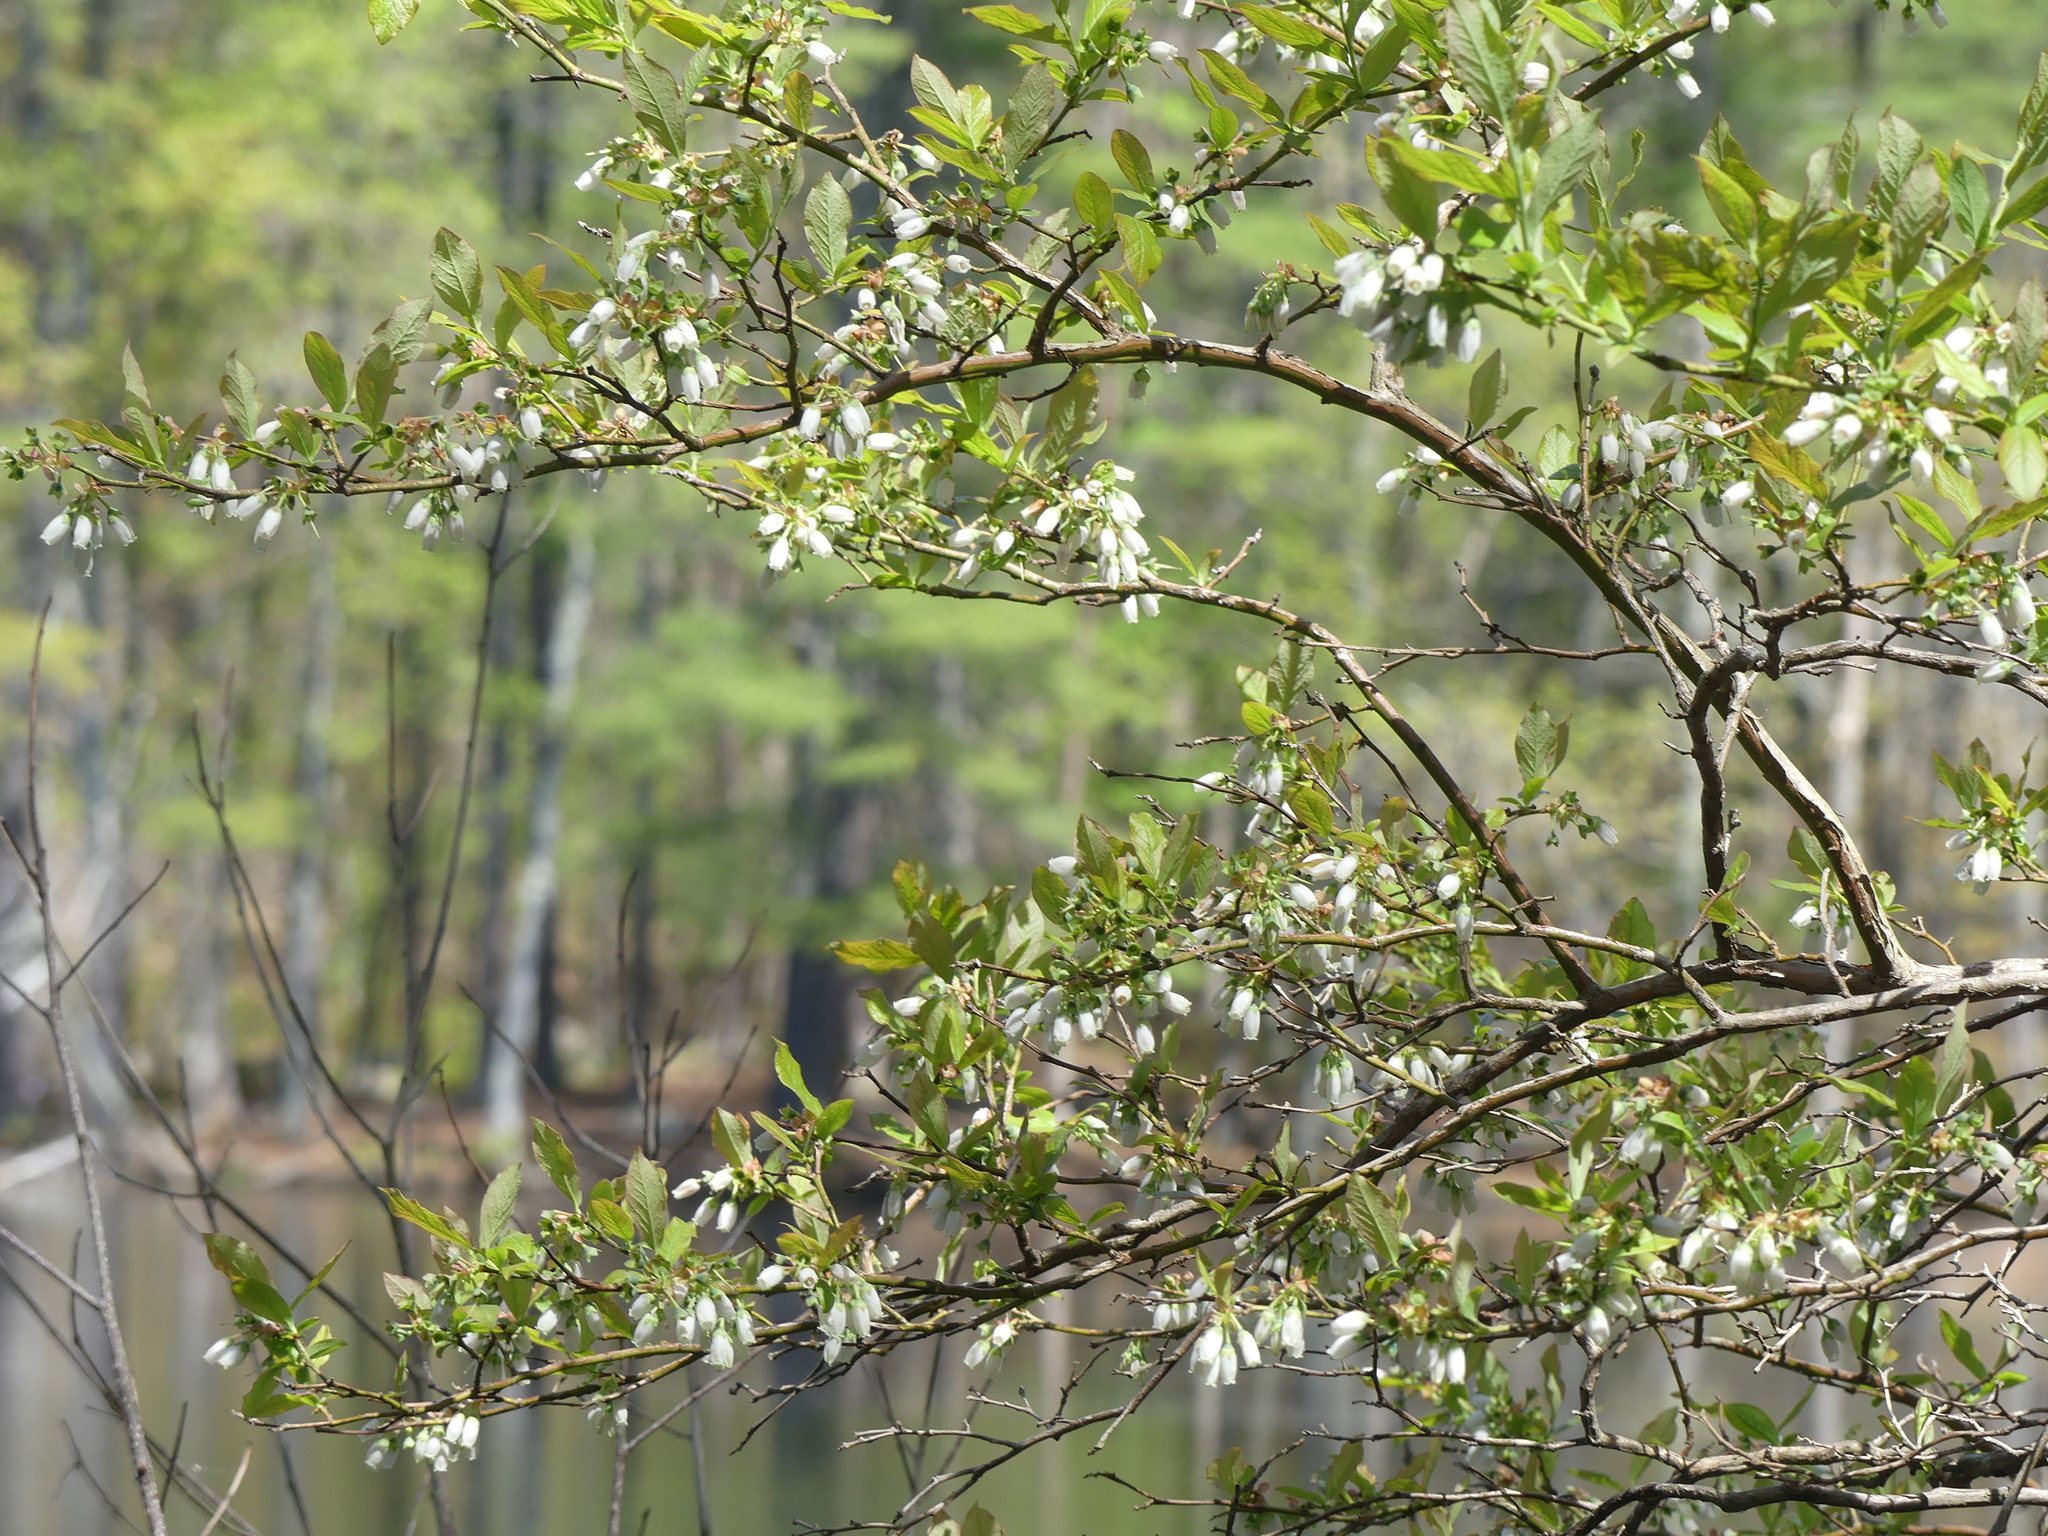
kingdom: Plantae
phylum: Tracheophyta
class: Magnoliopsida
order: Ericales
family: Ericaceae
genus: Vaccinium
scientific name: Vaccinium corymbosum
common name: Blueberry
